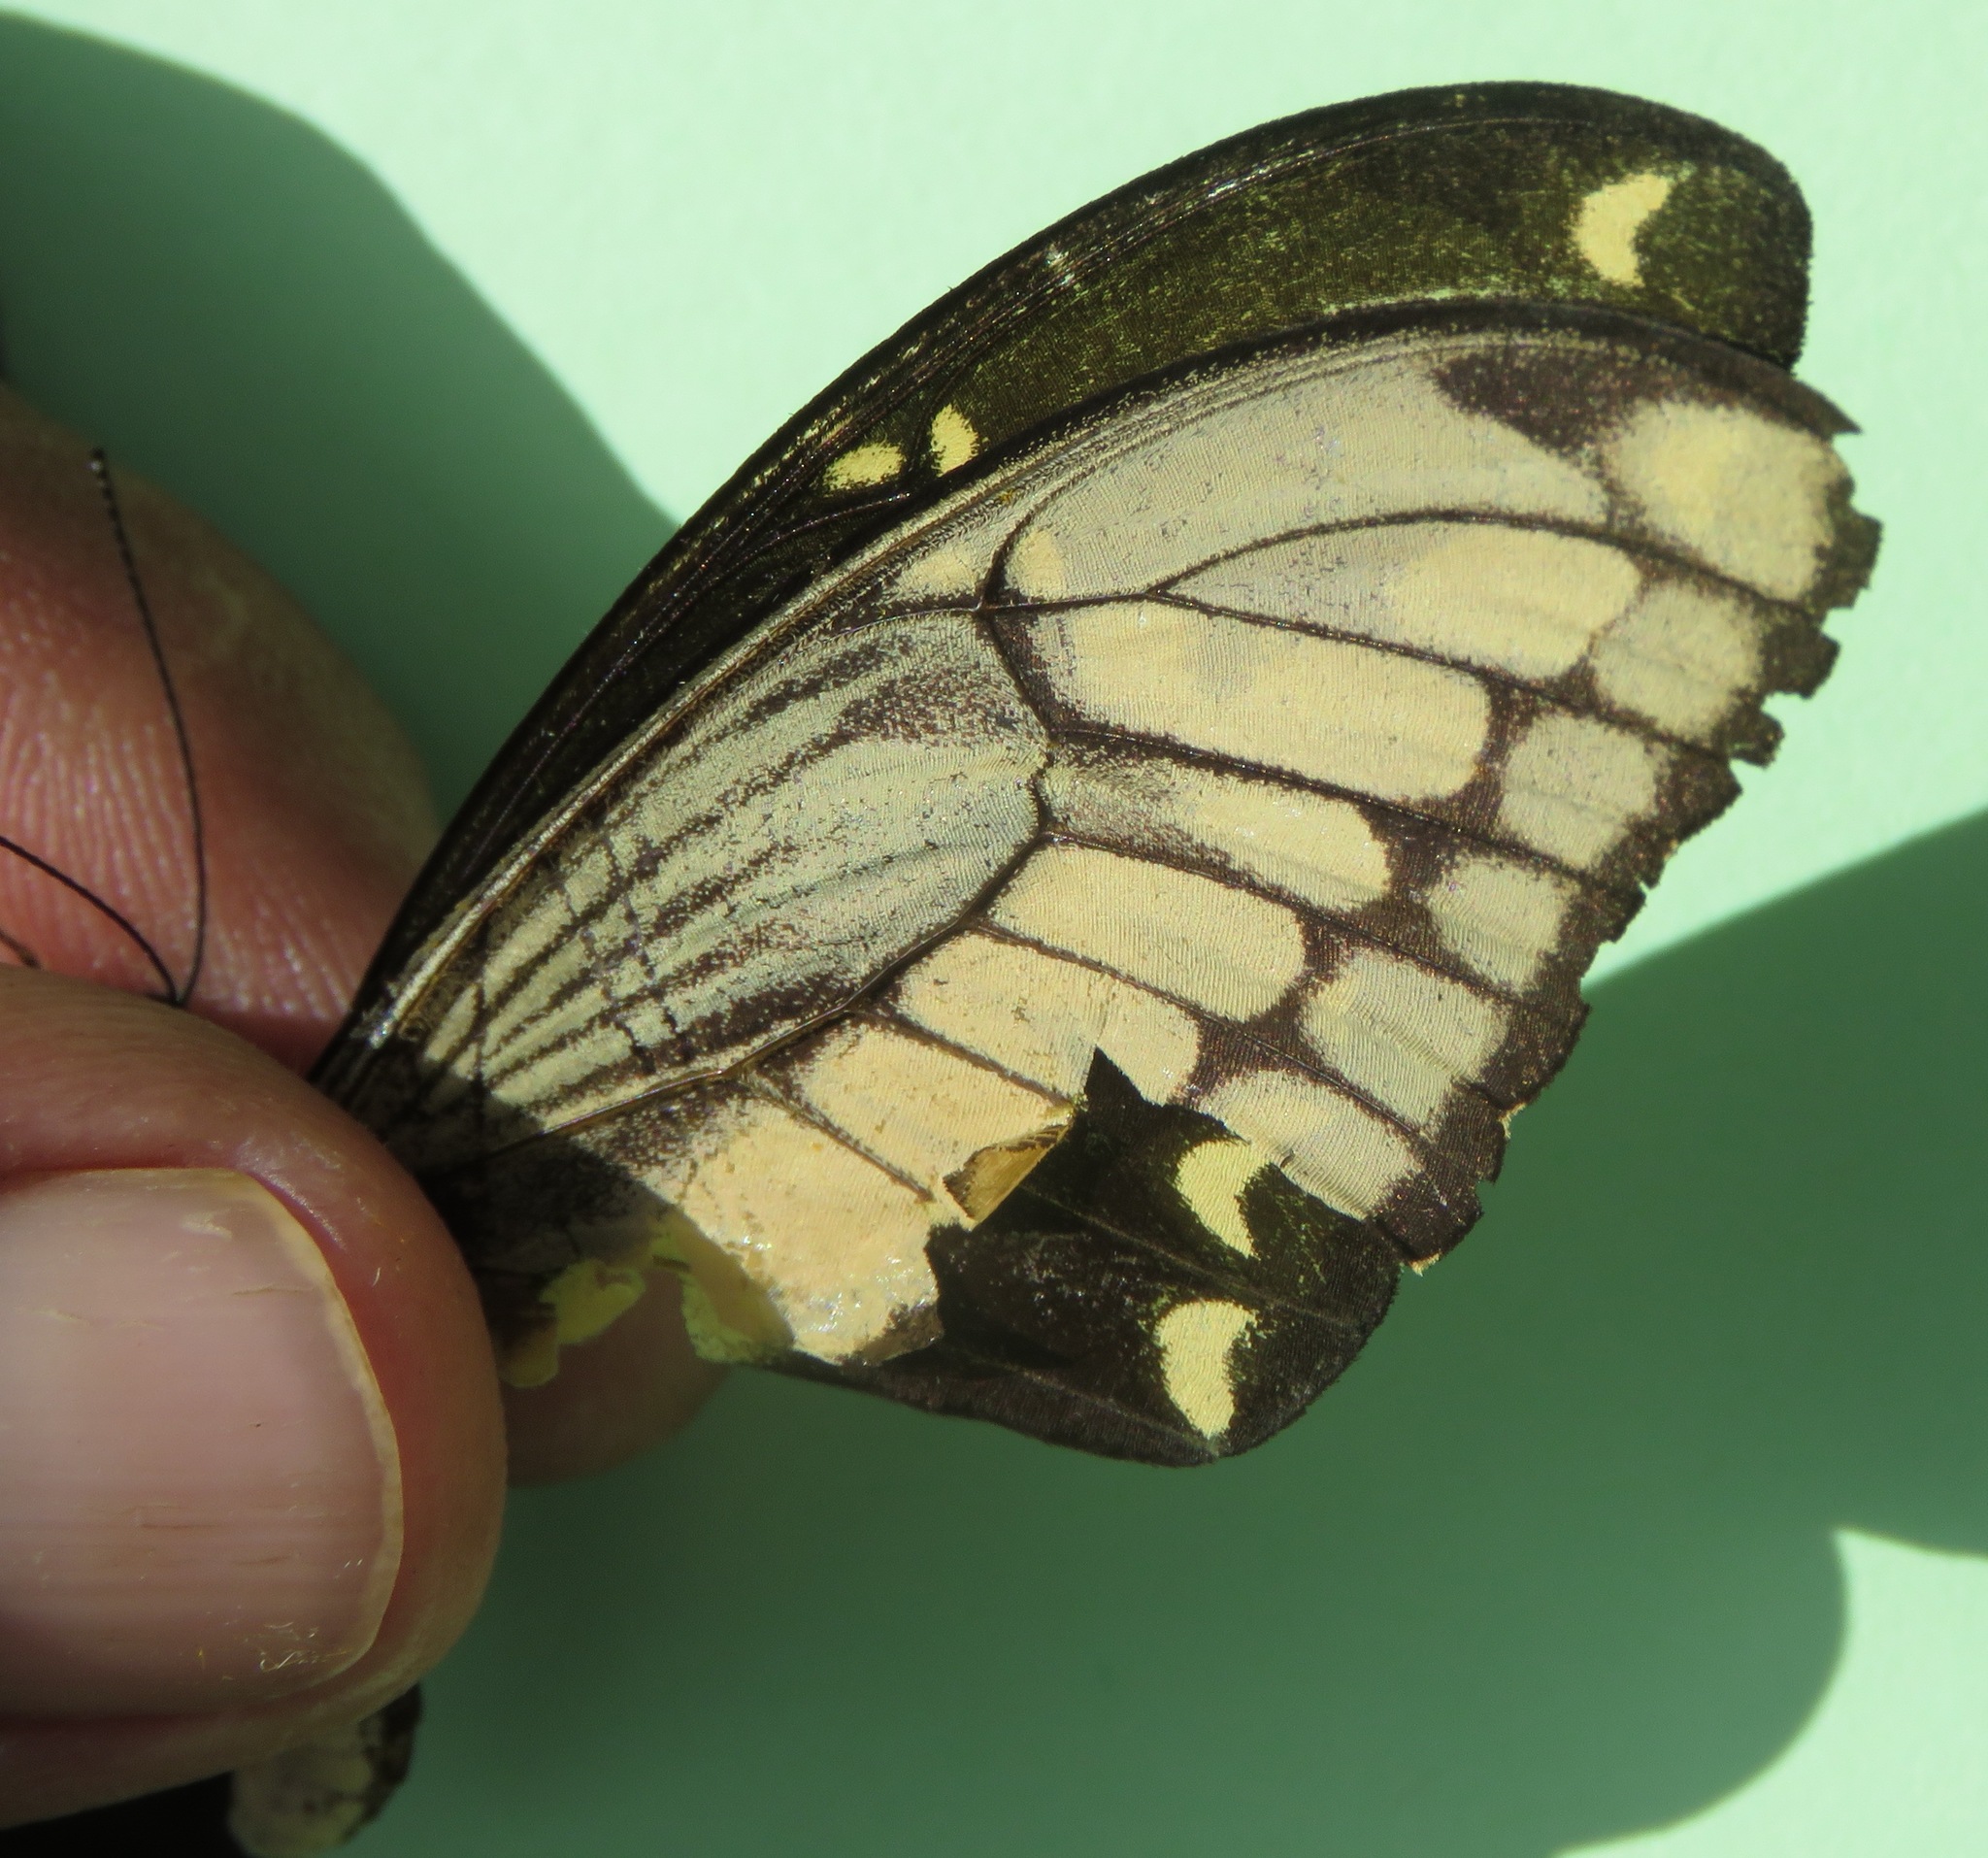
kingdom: Animalia
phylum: Arthropoda
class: Insecta
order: Lepidoptera
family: Papilionidae
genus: Papilio
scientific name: Papilio thoas
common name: King swallowtail
